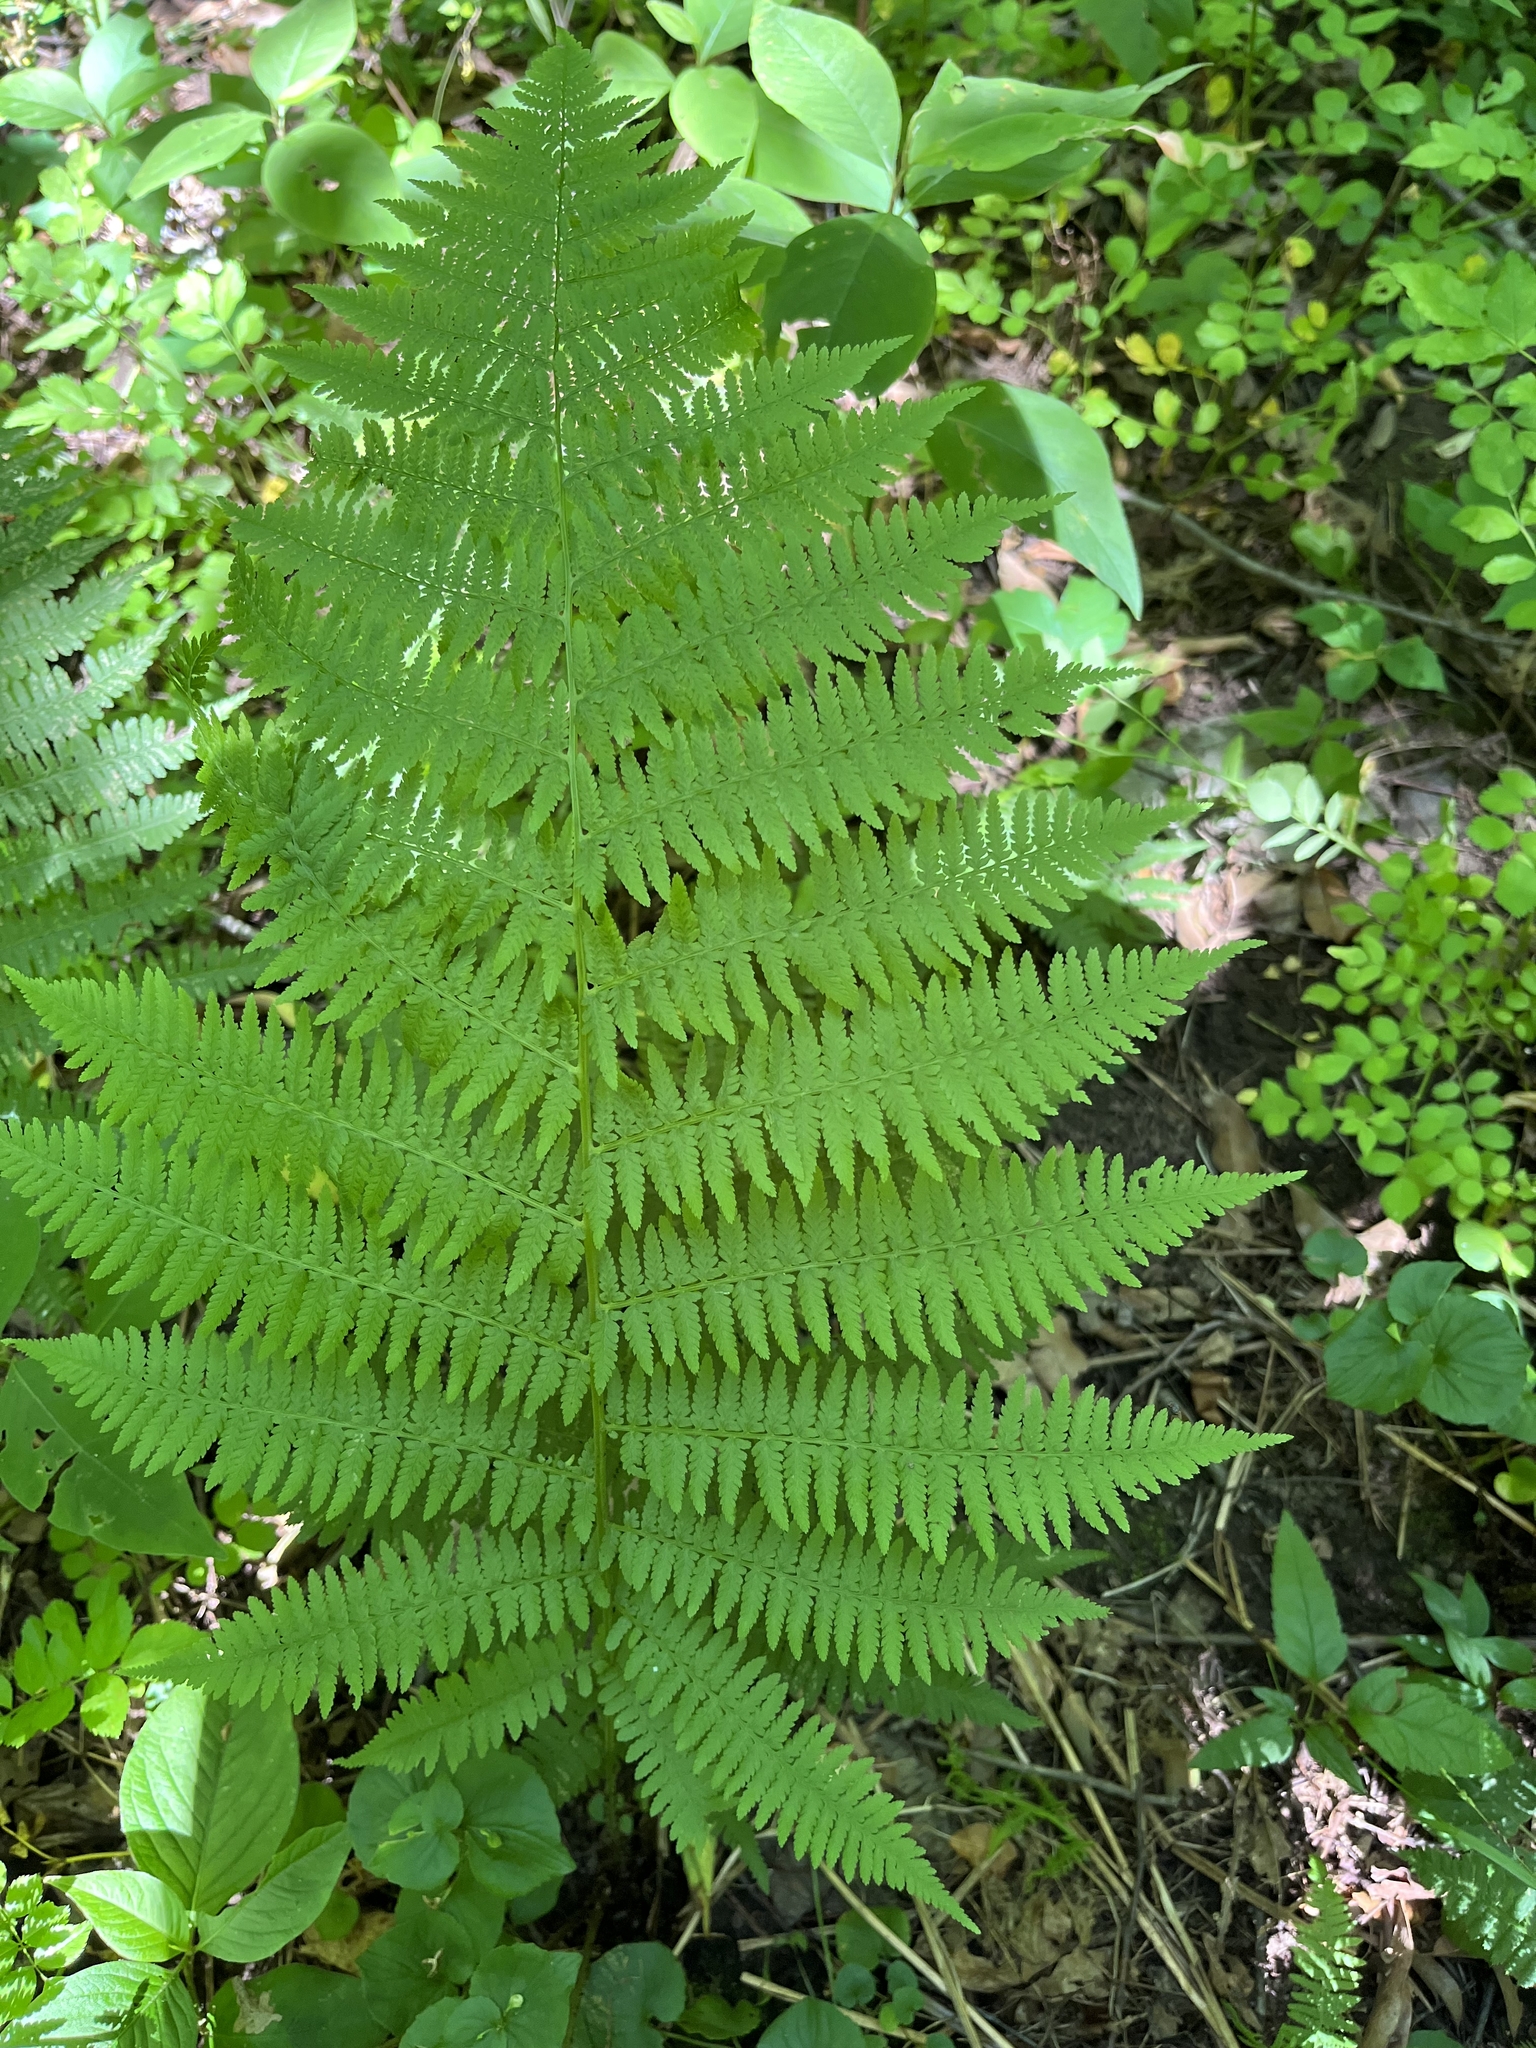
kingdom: Plantae
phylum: Tracheophyta
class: Polypodiopsida
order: Polypodiales
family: Athyriaceae
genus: Athyrium
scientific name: Athyrium angustum
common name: Northern lady fern
